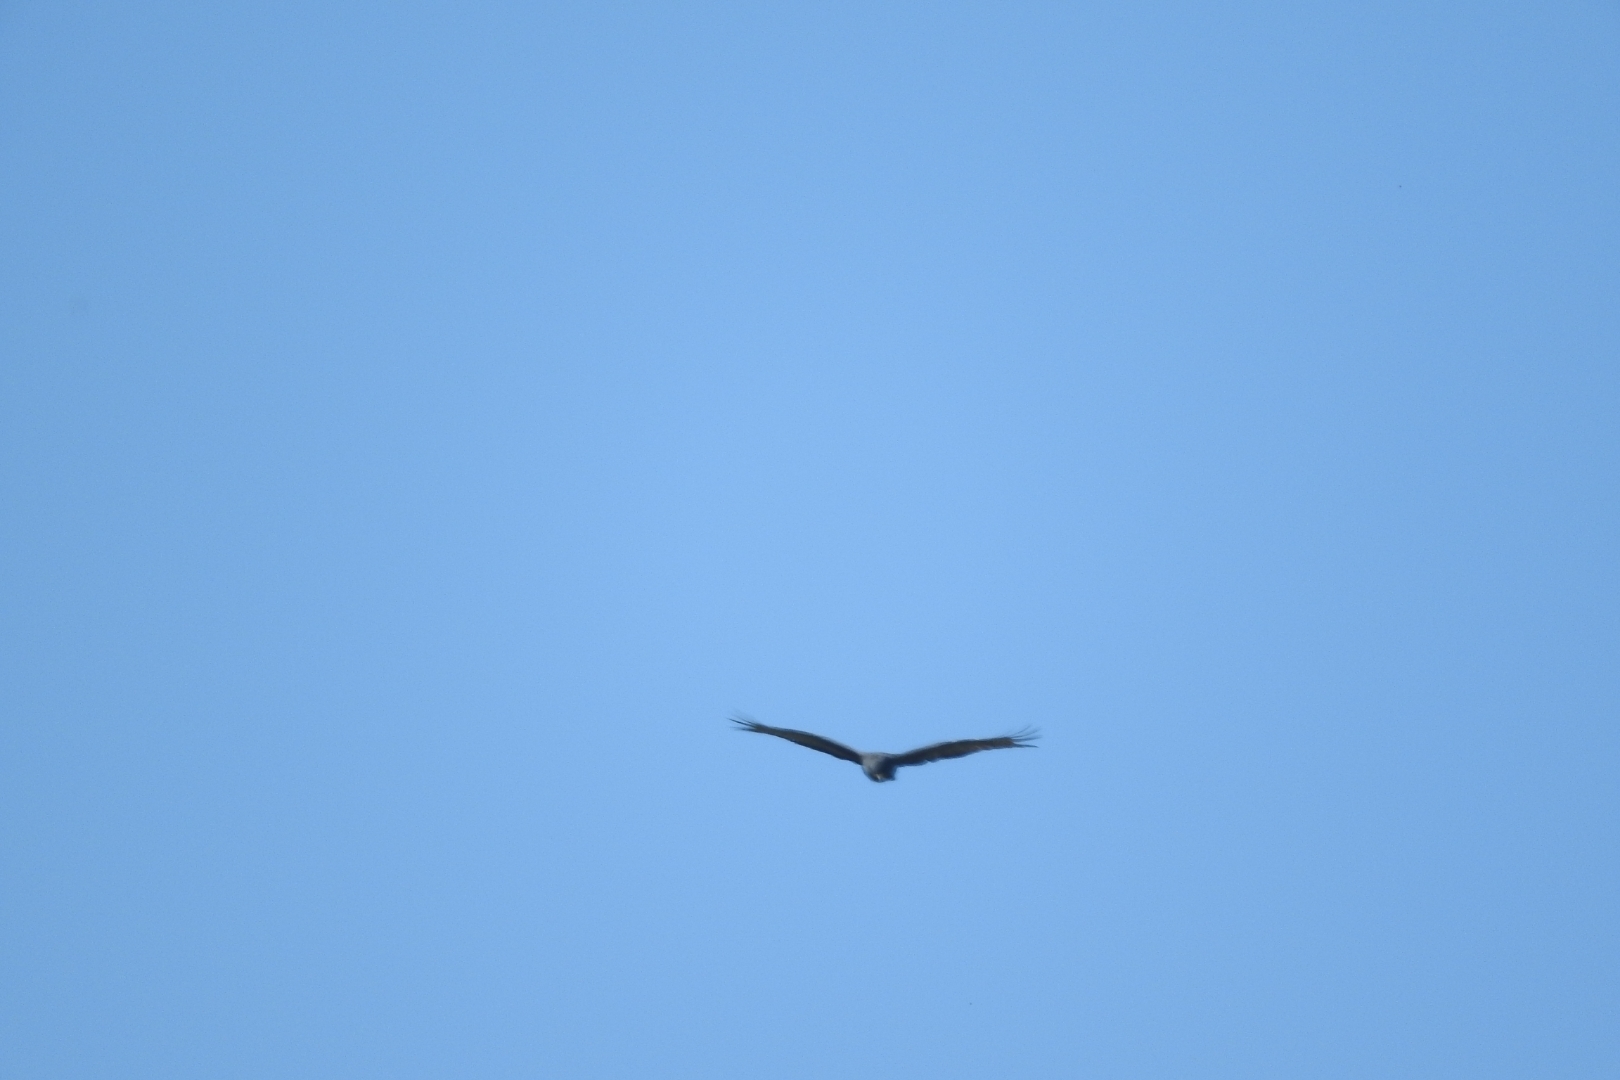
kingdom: Animalia
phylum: Chordata
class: Aves
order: Accipitriformes
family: Accipitridae
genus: Buteo
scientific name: Buteo albonotatus
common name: Zone-tailed hawk
